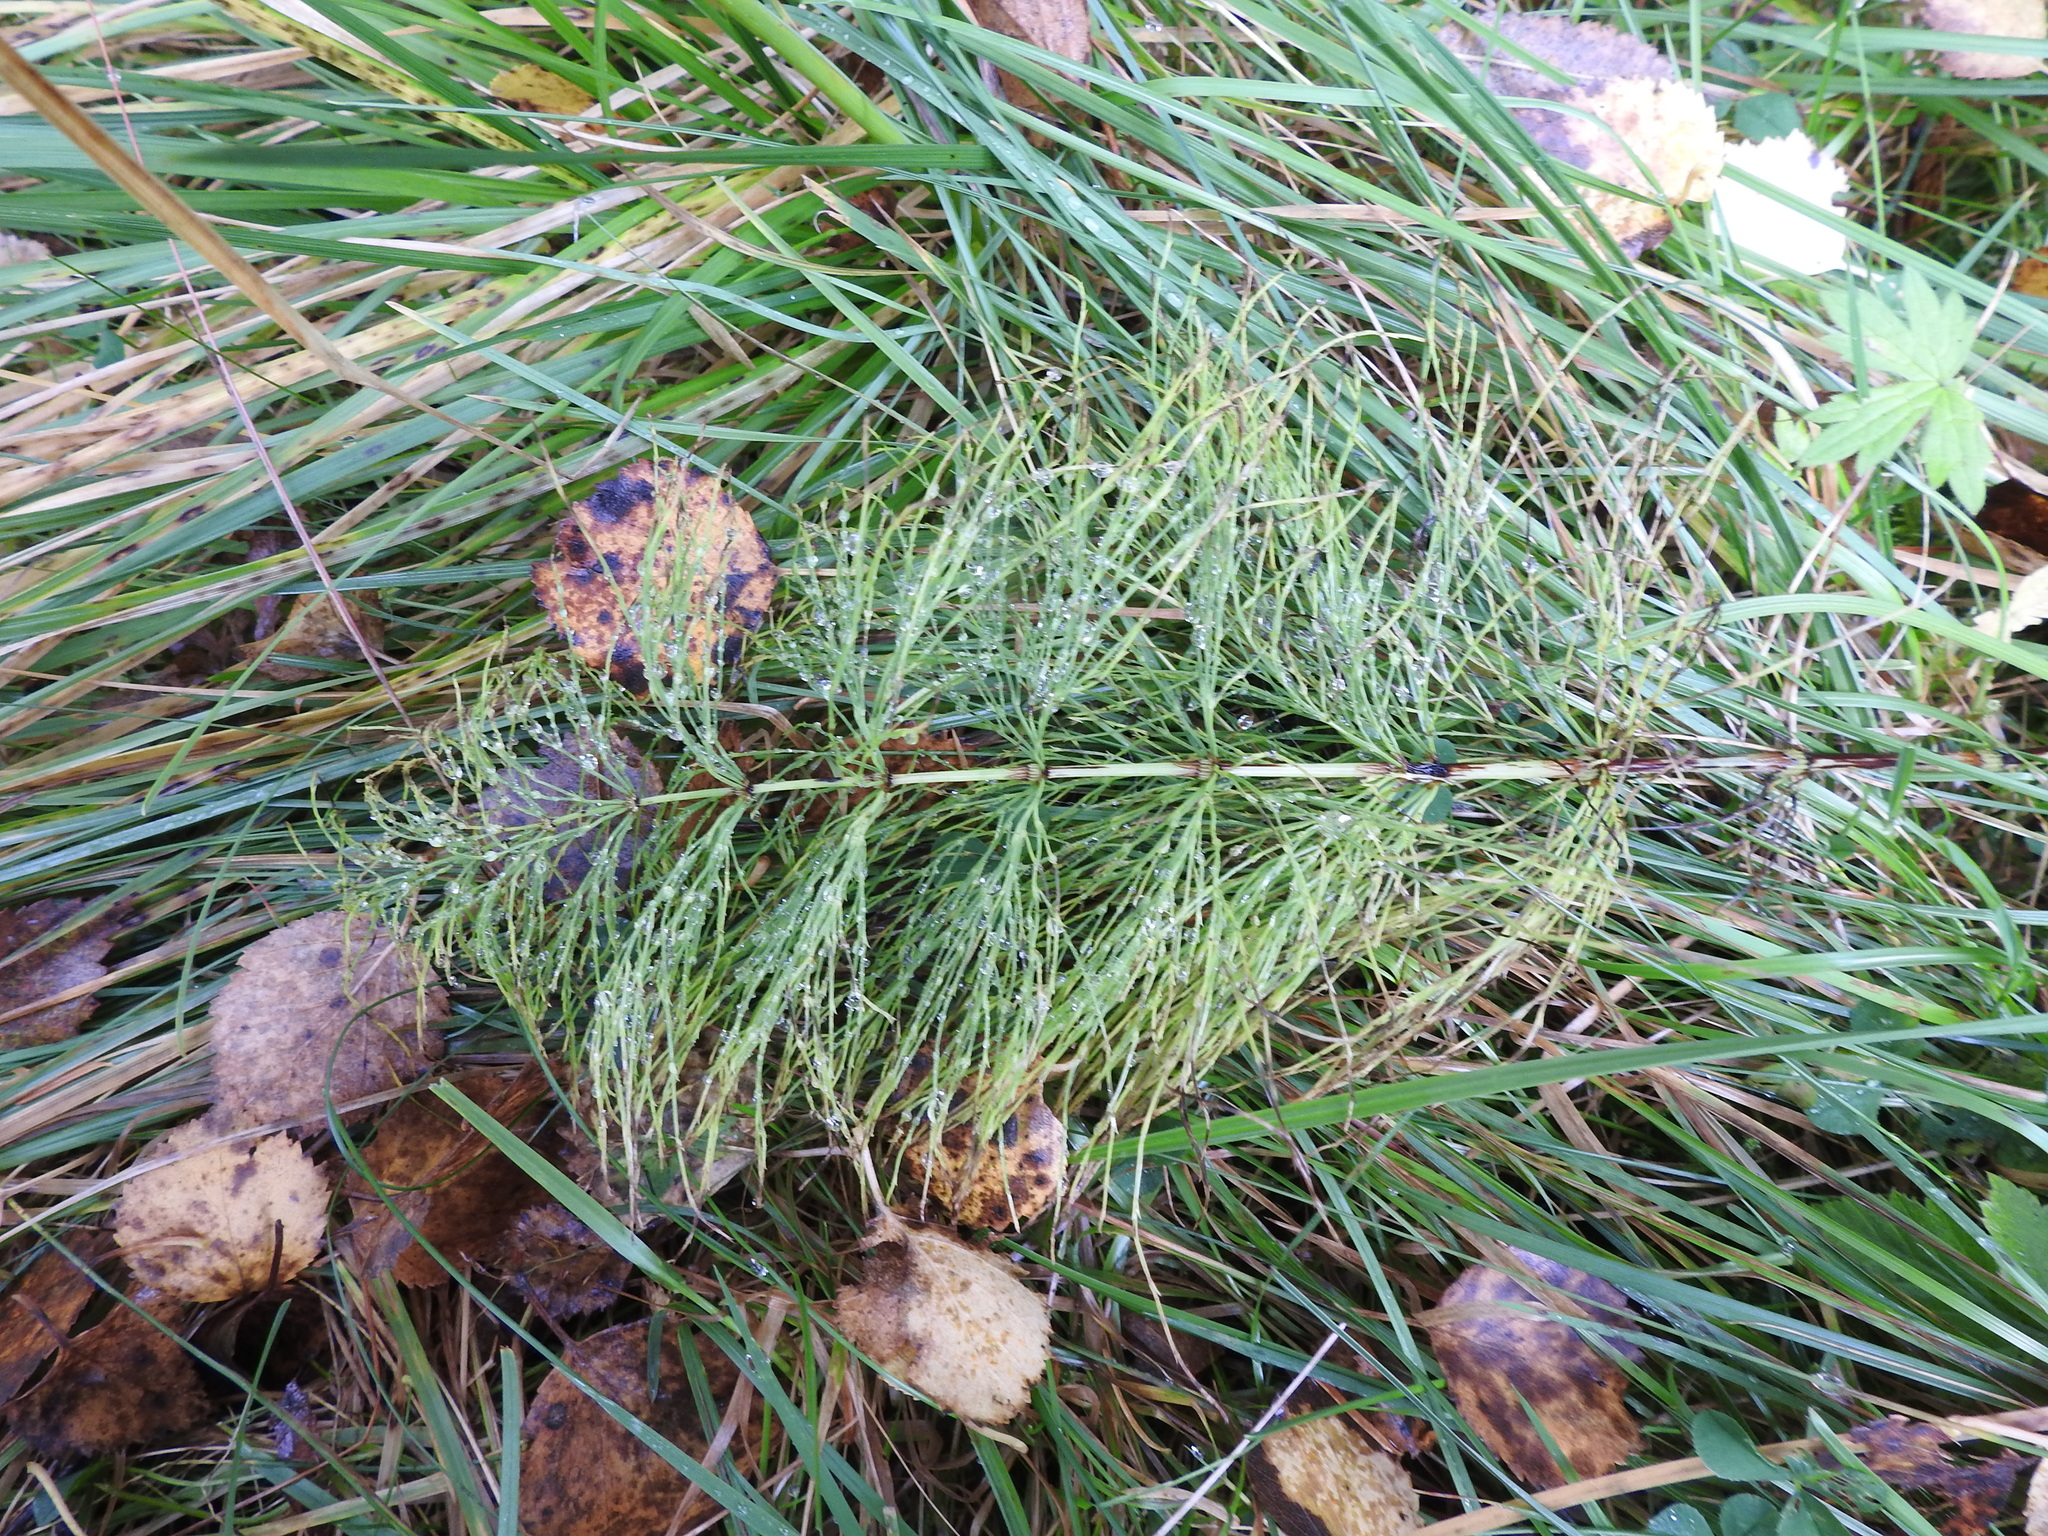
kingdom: Plantae
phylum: Tracheophyta
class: Polypodiopsida
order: Equisetales
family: Equisetaceae
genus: Equisetum
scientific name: Equisetum sylvaticum
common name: Wood horsetail
